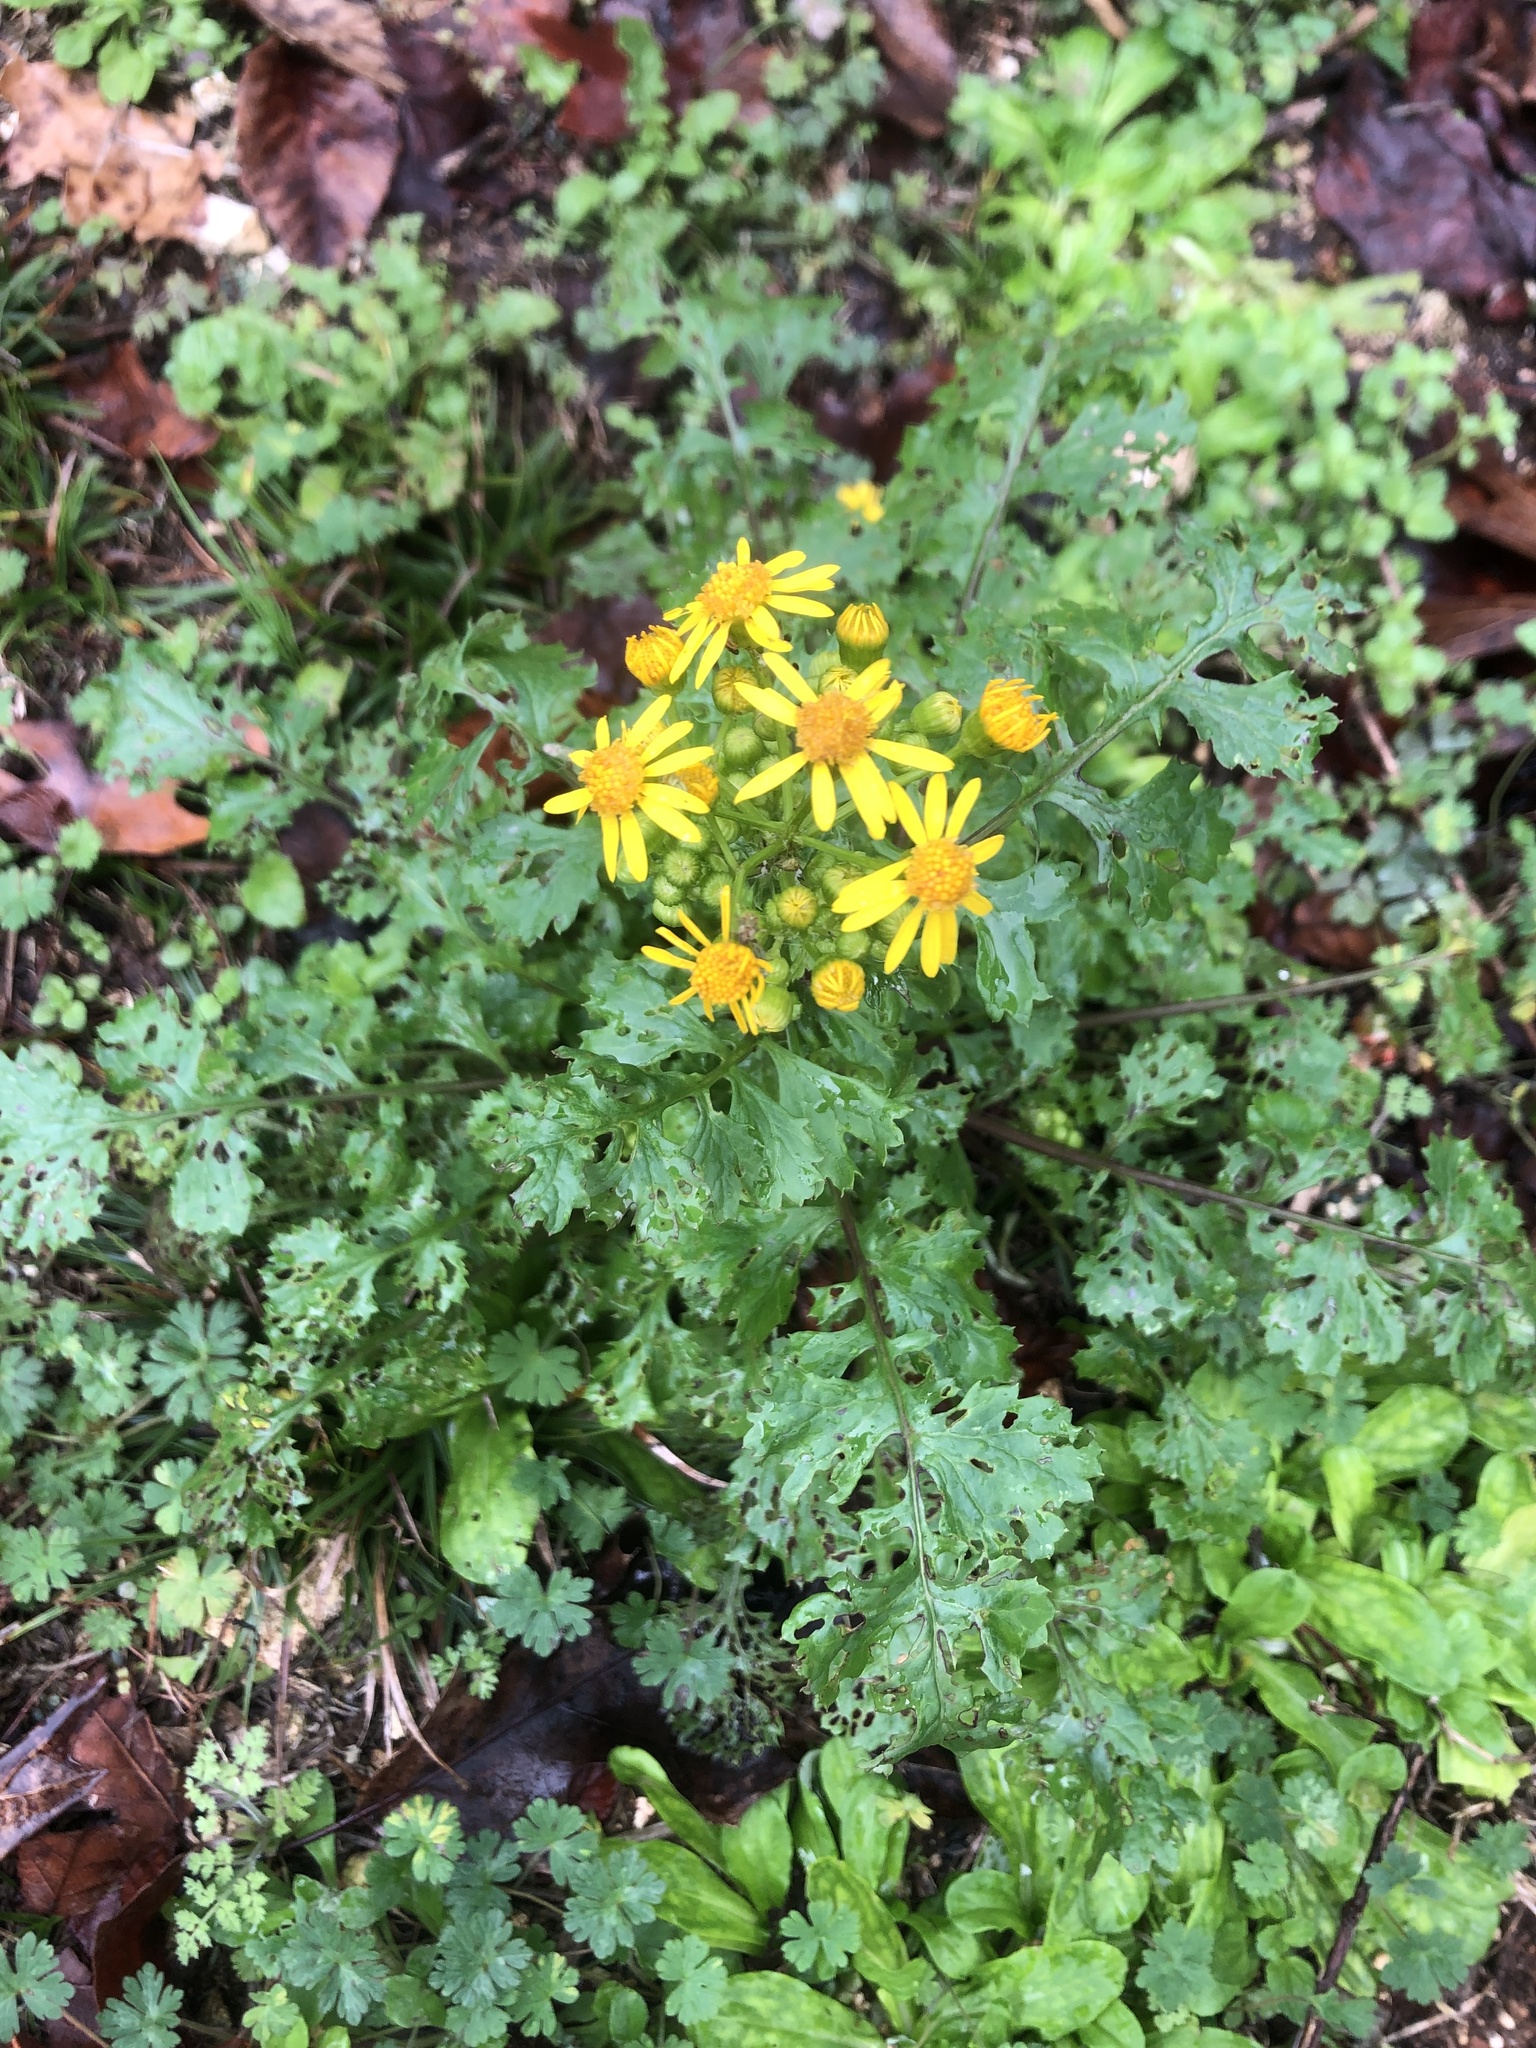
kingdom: Plantae
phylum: Tracheophyta
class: Magnoliopsida
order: Asterales
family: Asteraceae
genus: Packera
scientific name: Packera glabella
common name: Butterweed
